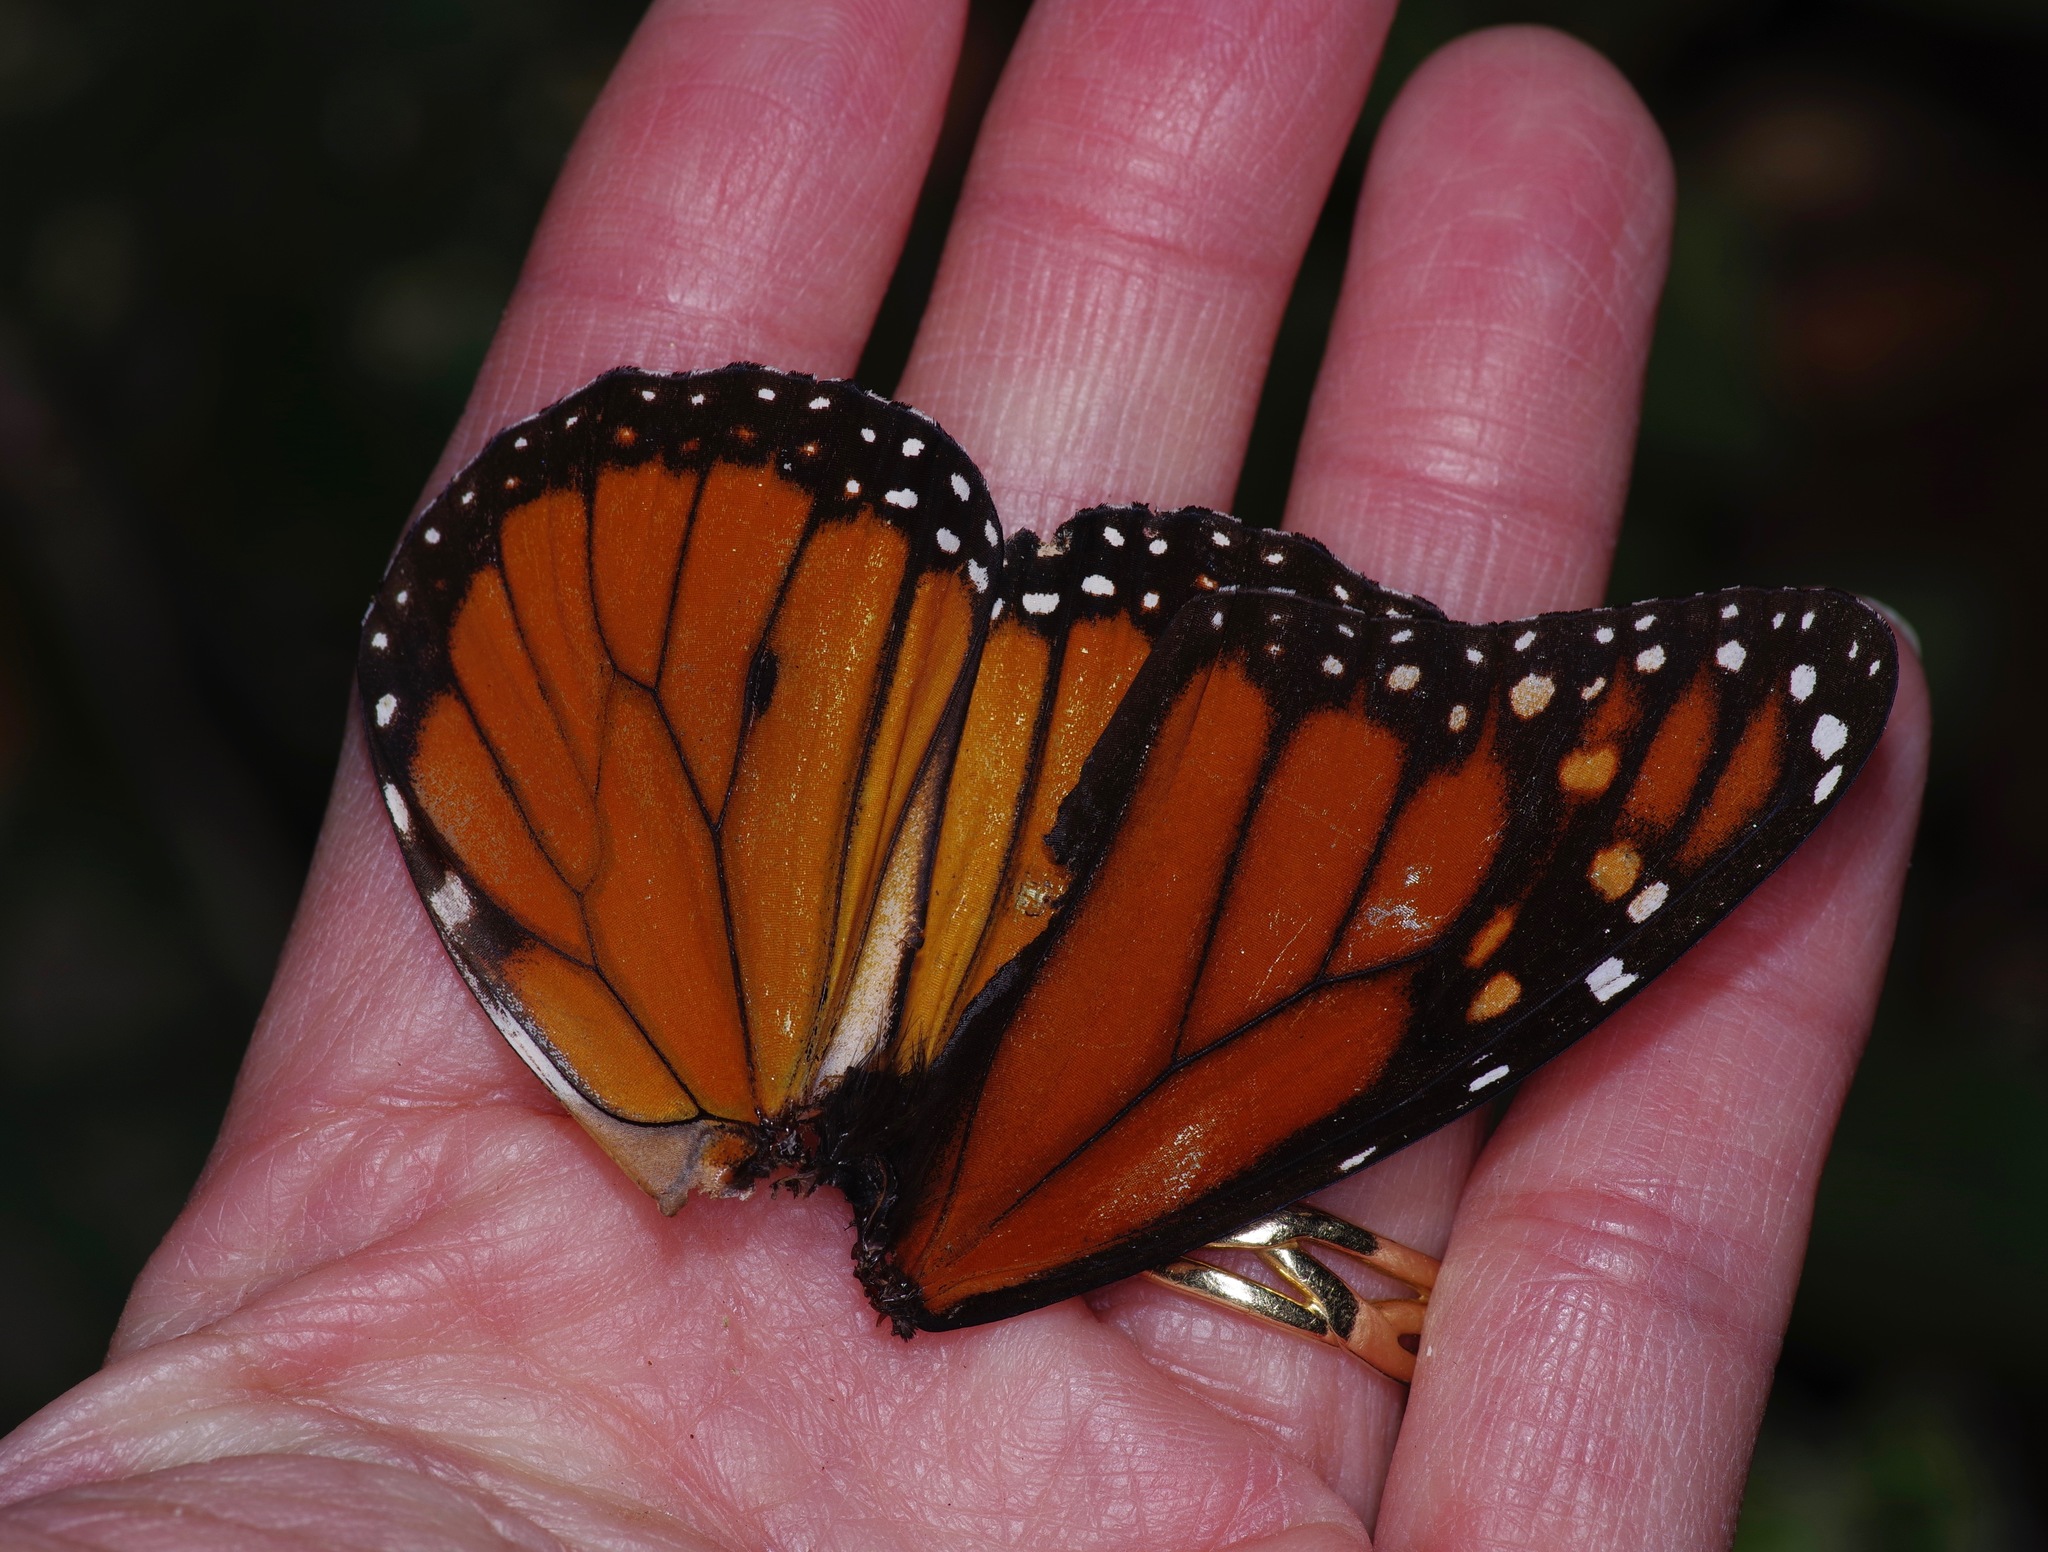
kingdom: Animalia
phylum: Arthropoda
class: Insecta
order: Lepidoptera
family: Nymphalidae
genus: Danaus
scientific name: Danaus plexippus
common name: Monarch
